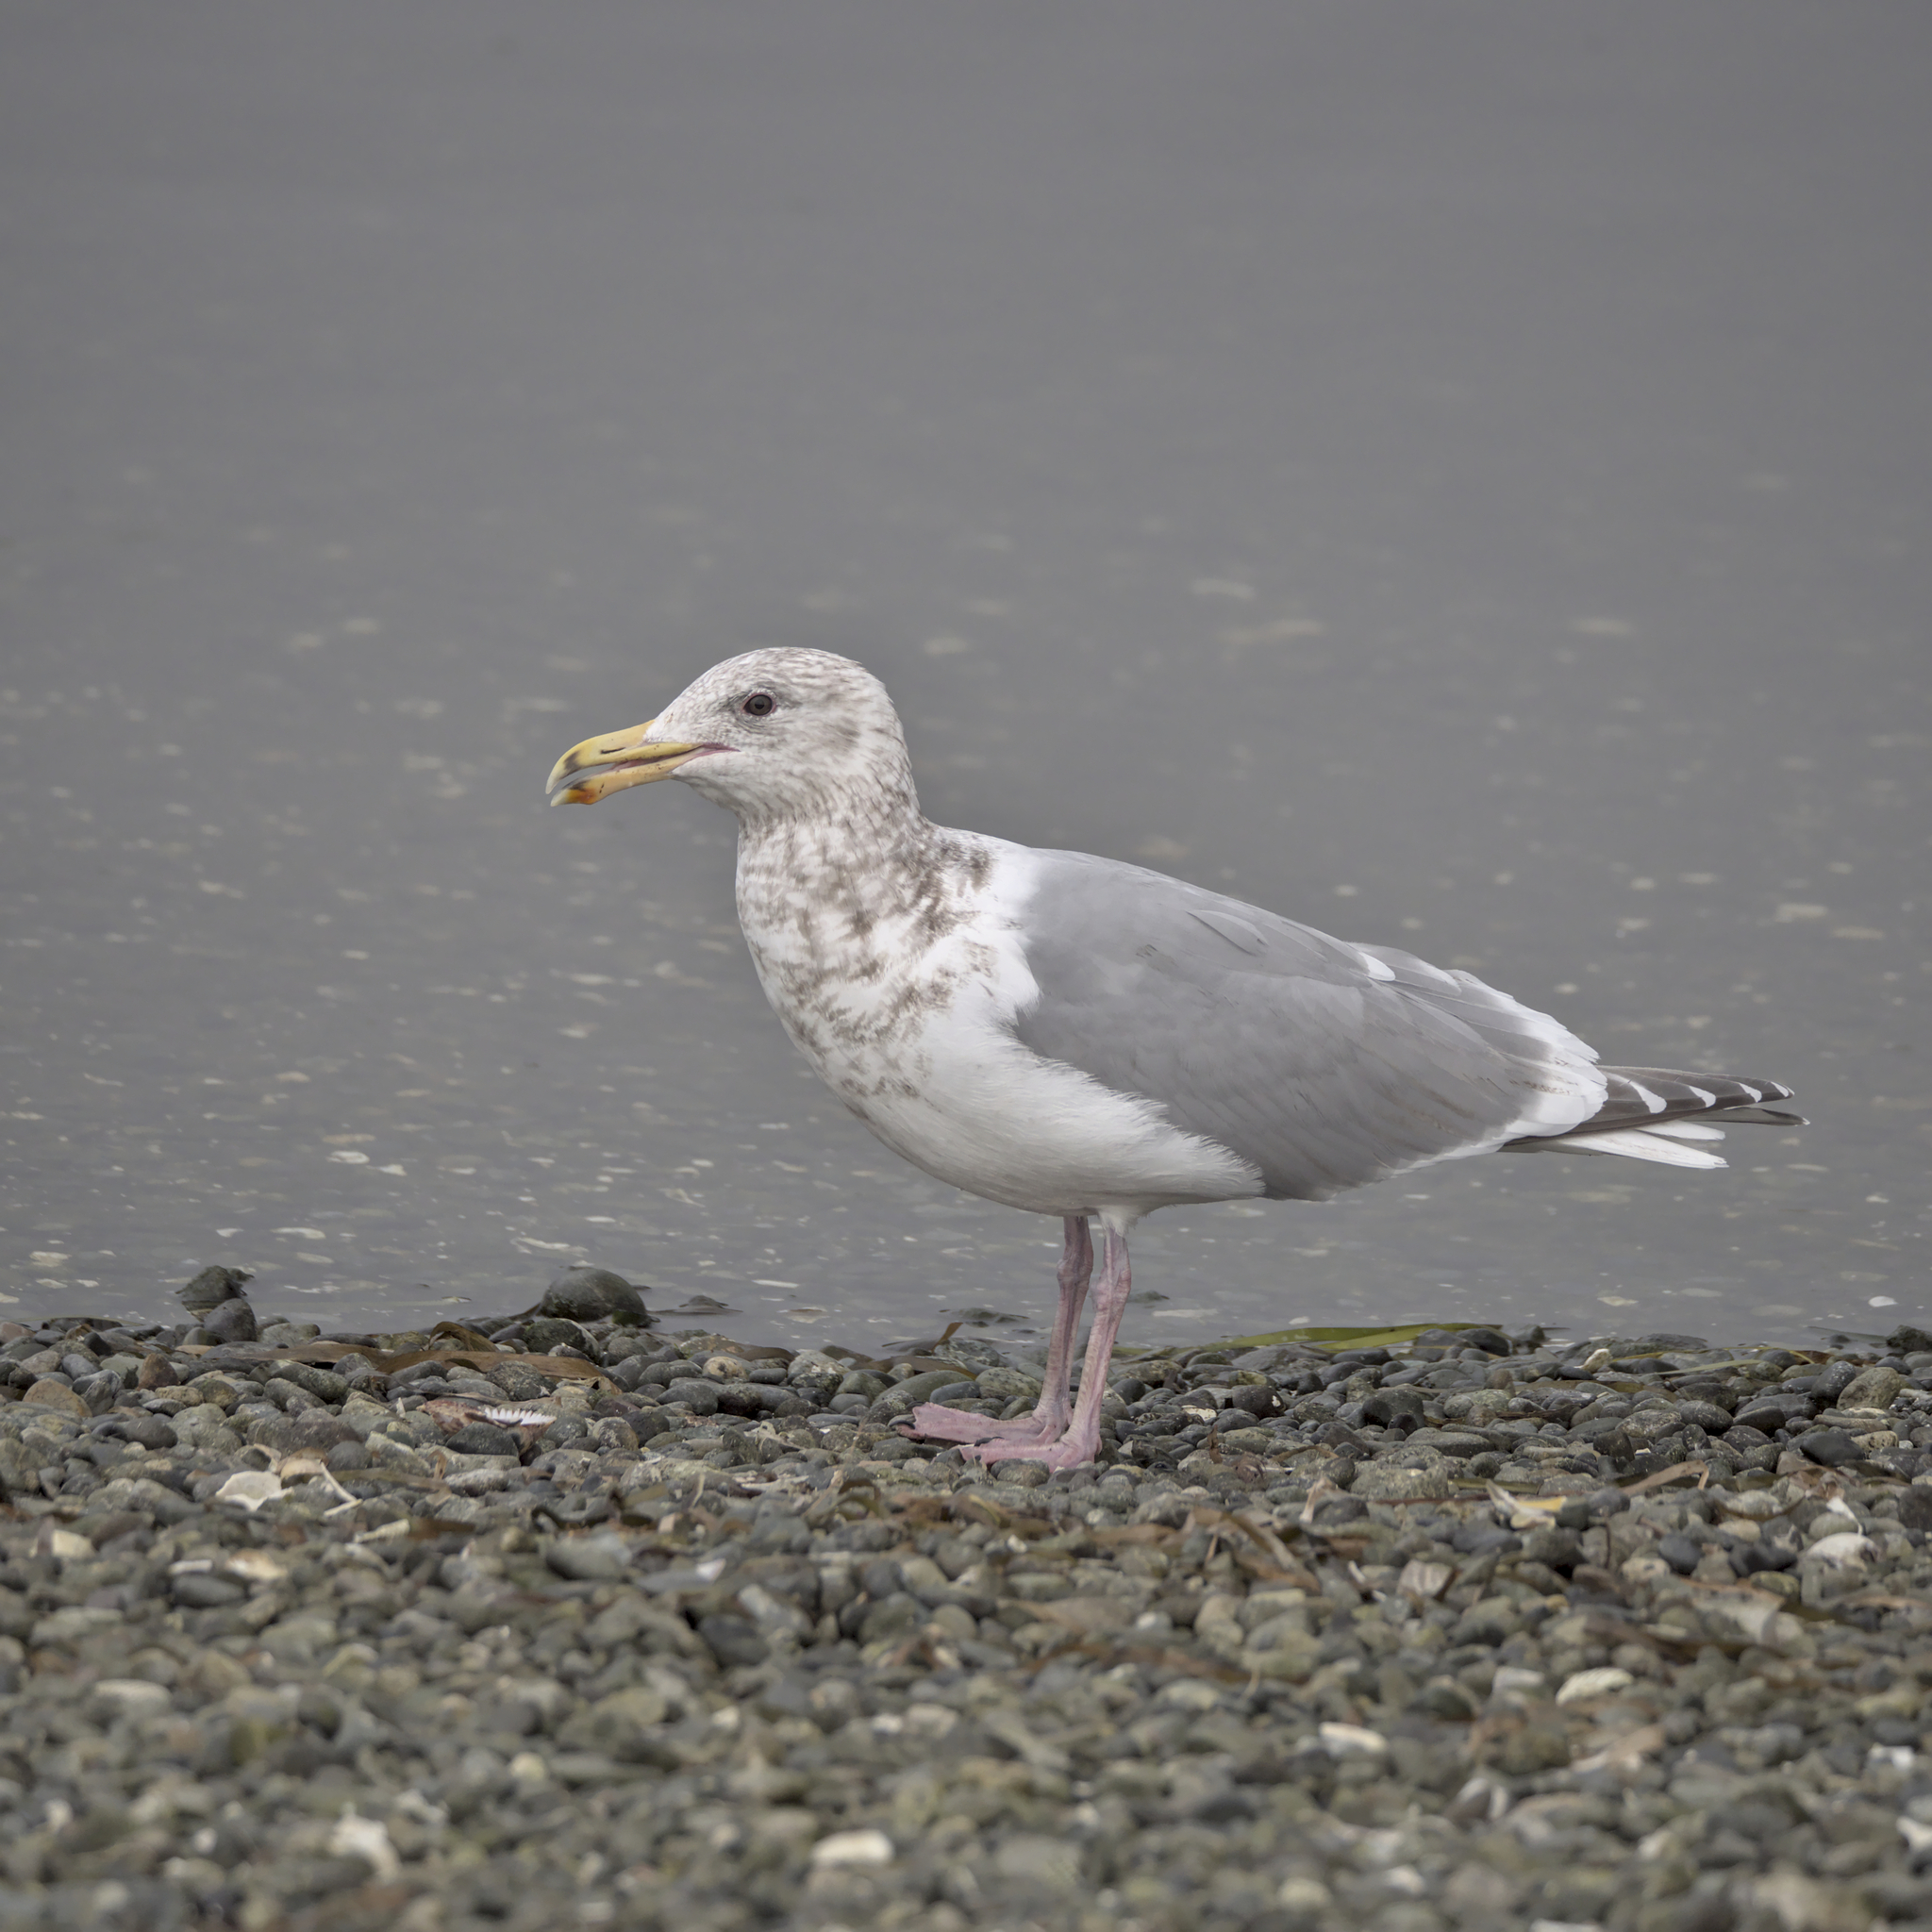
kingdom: Animalia
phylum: Chordata
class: Aves
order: Charadriiformes
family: Laridae
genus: Larus
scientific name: Larus
